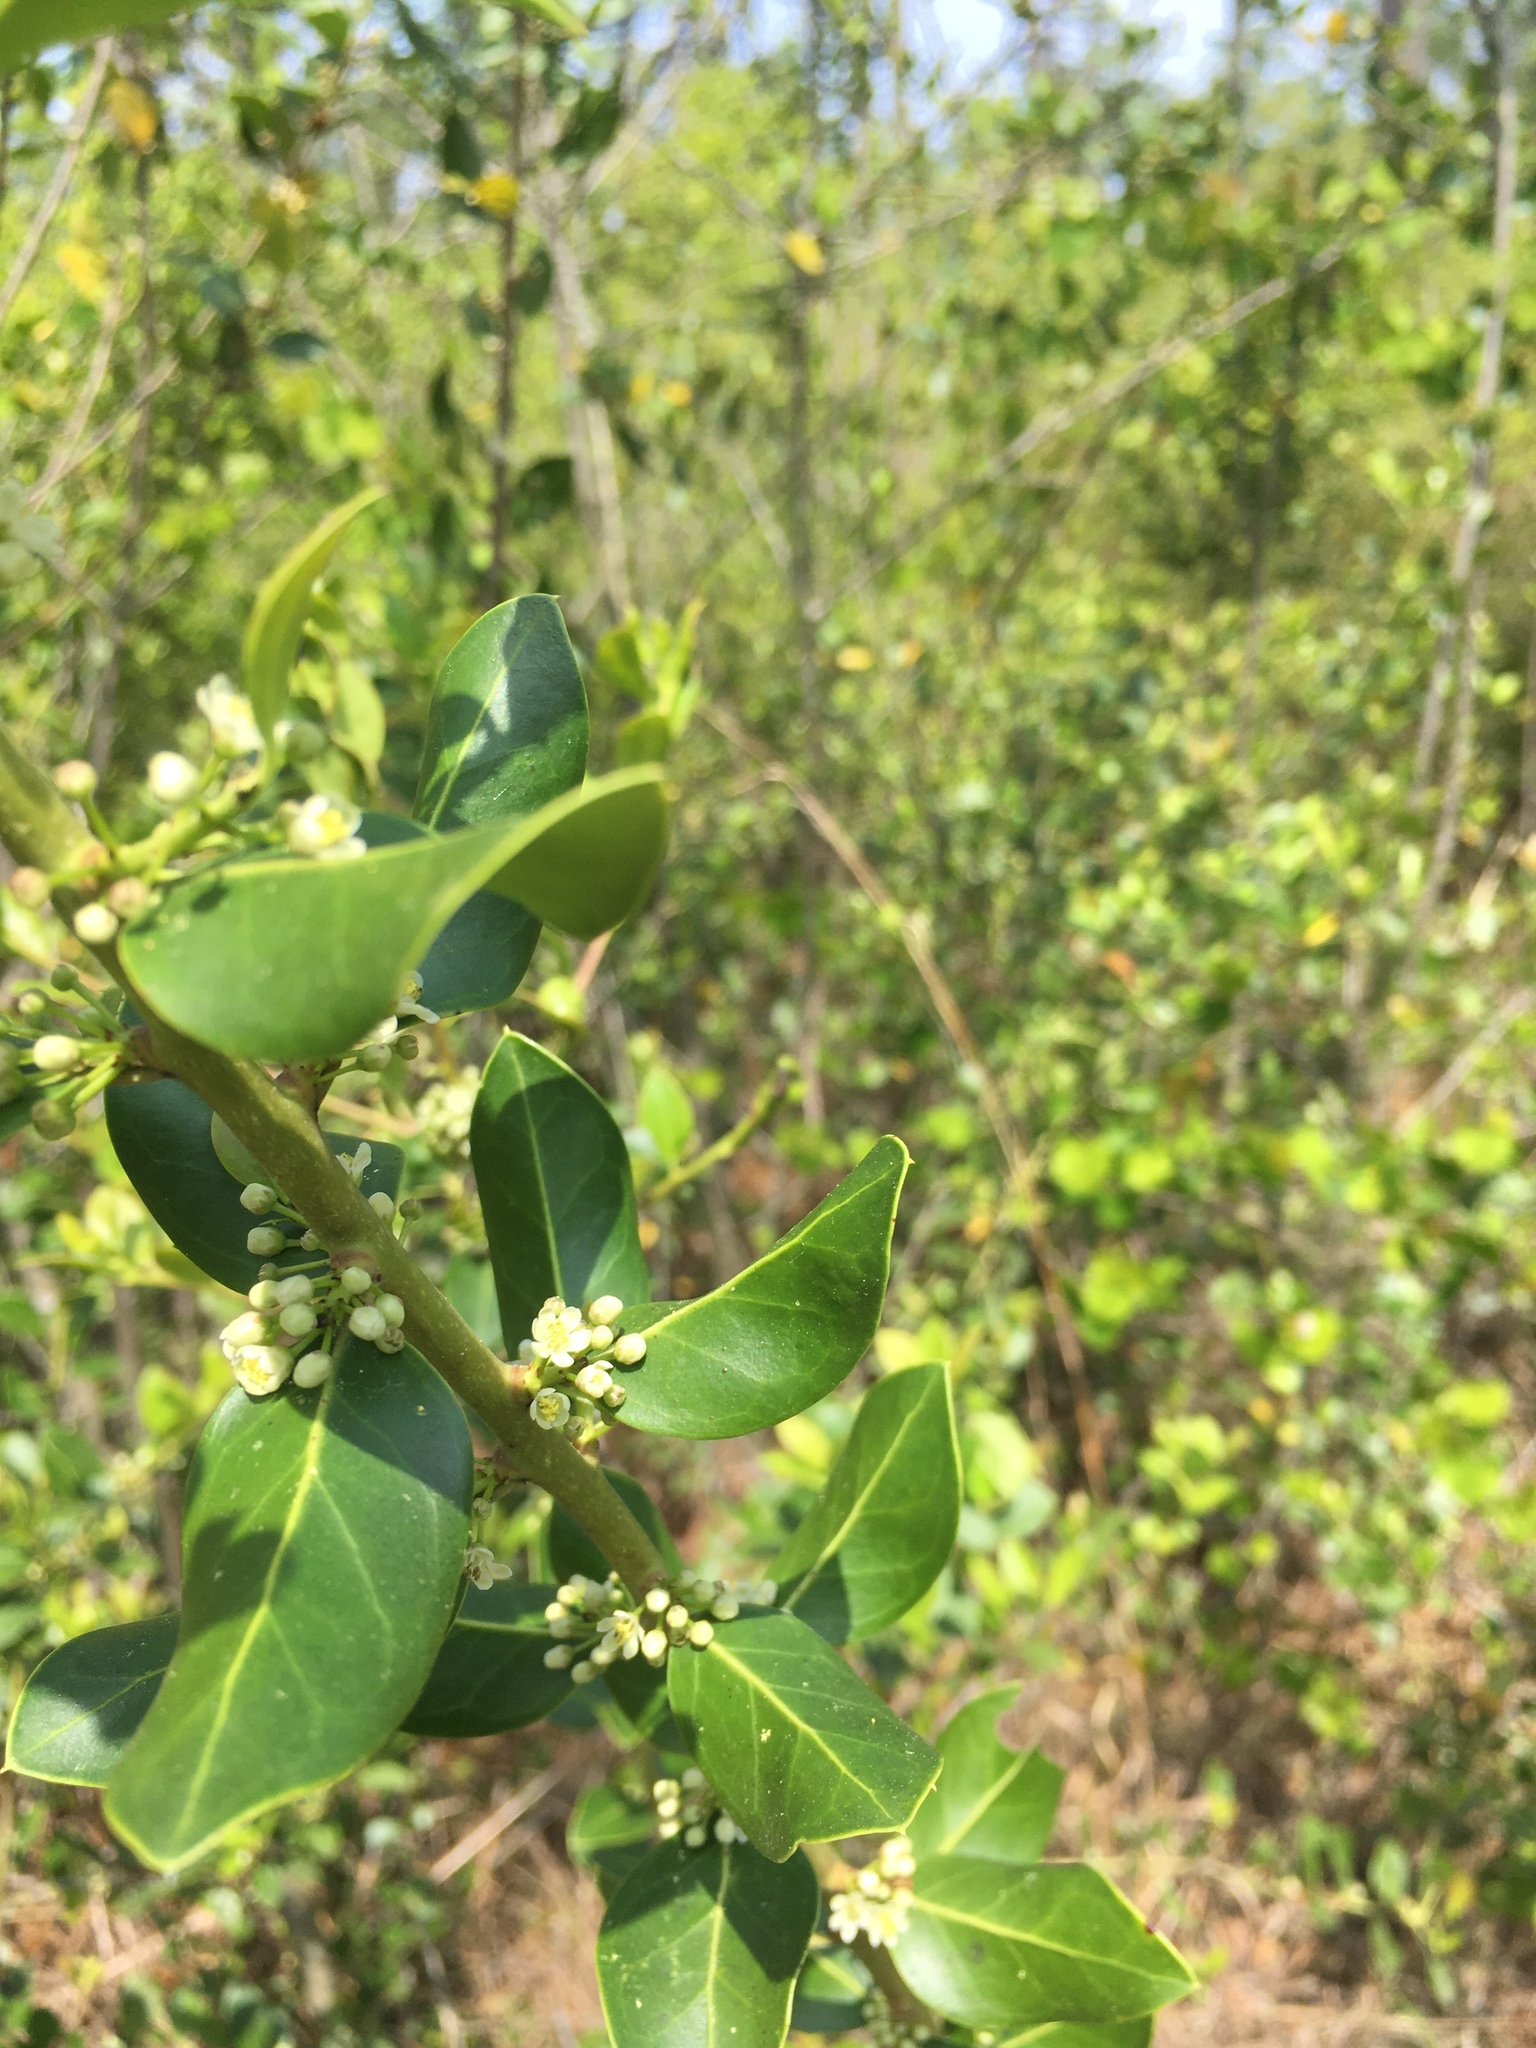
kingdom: Plantae
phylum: Tracheophyta
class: Magnoliopsida
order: Aquifoliales
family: Aquifoliaceae
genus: Ilex
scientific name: Ilex coriacea
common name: Sweet gallberry
